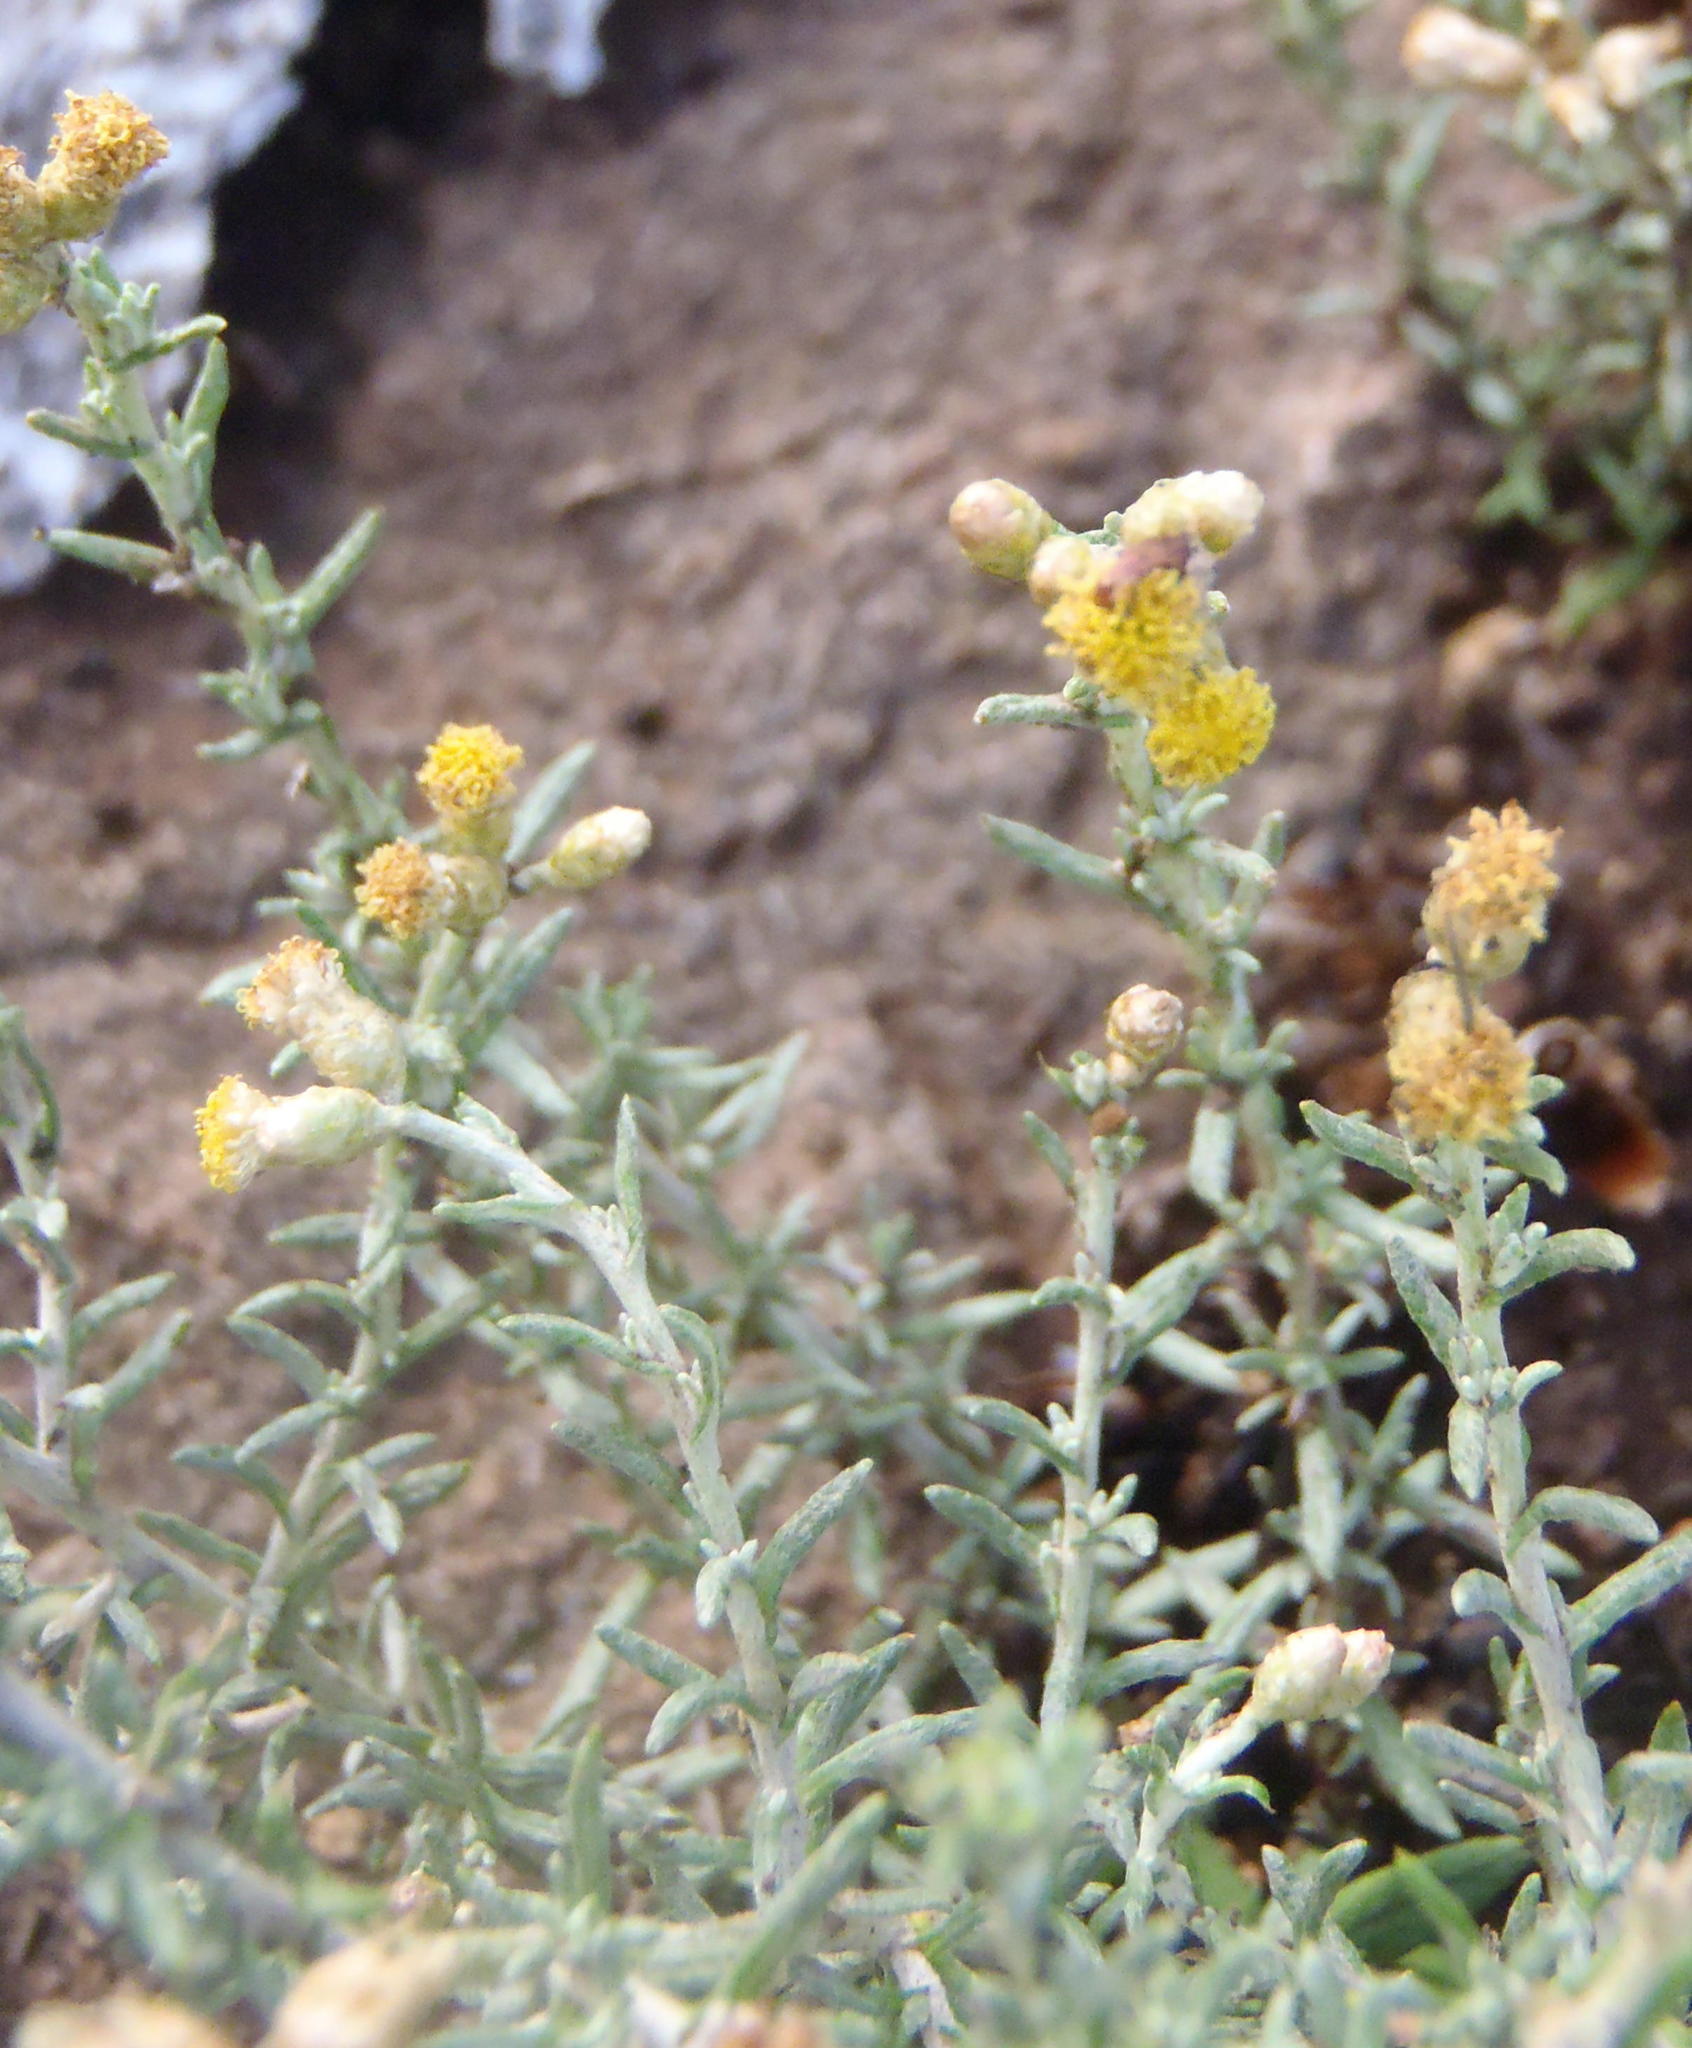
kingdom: Plantae
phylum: Tracheophyta
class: Magnoliopsida
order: Asterales
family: Asteraceae
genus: Helichrysum
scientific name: Helichrysum dregeanum
